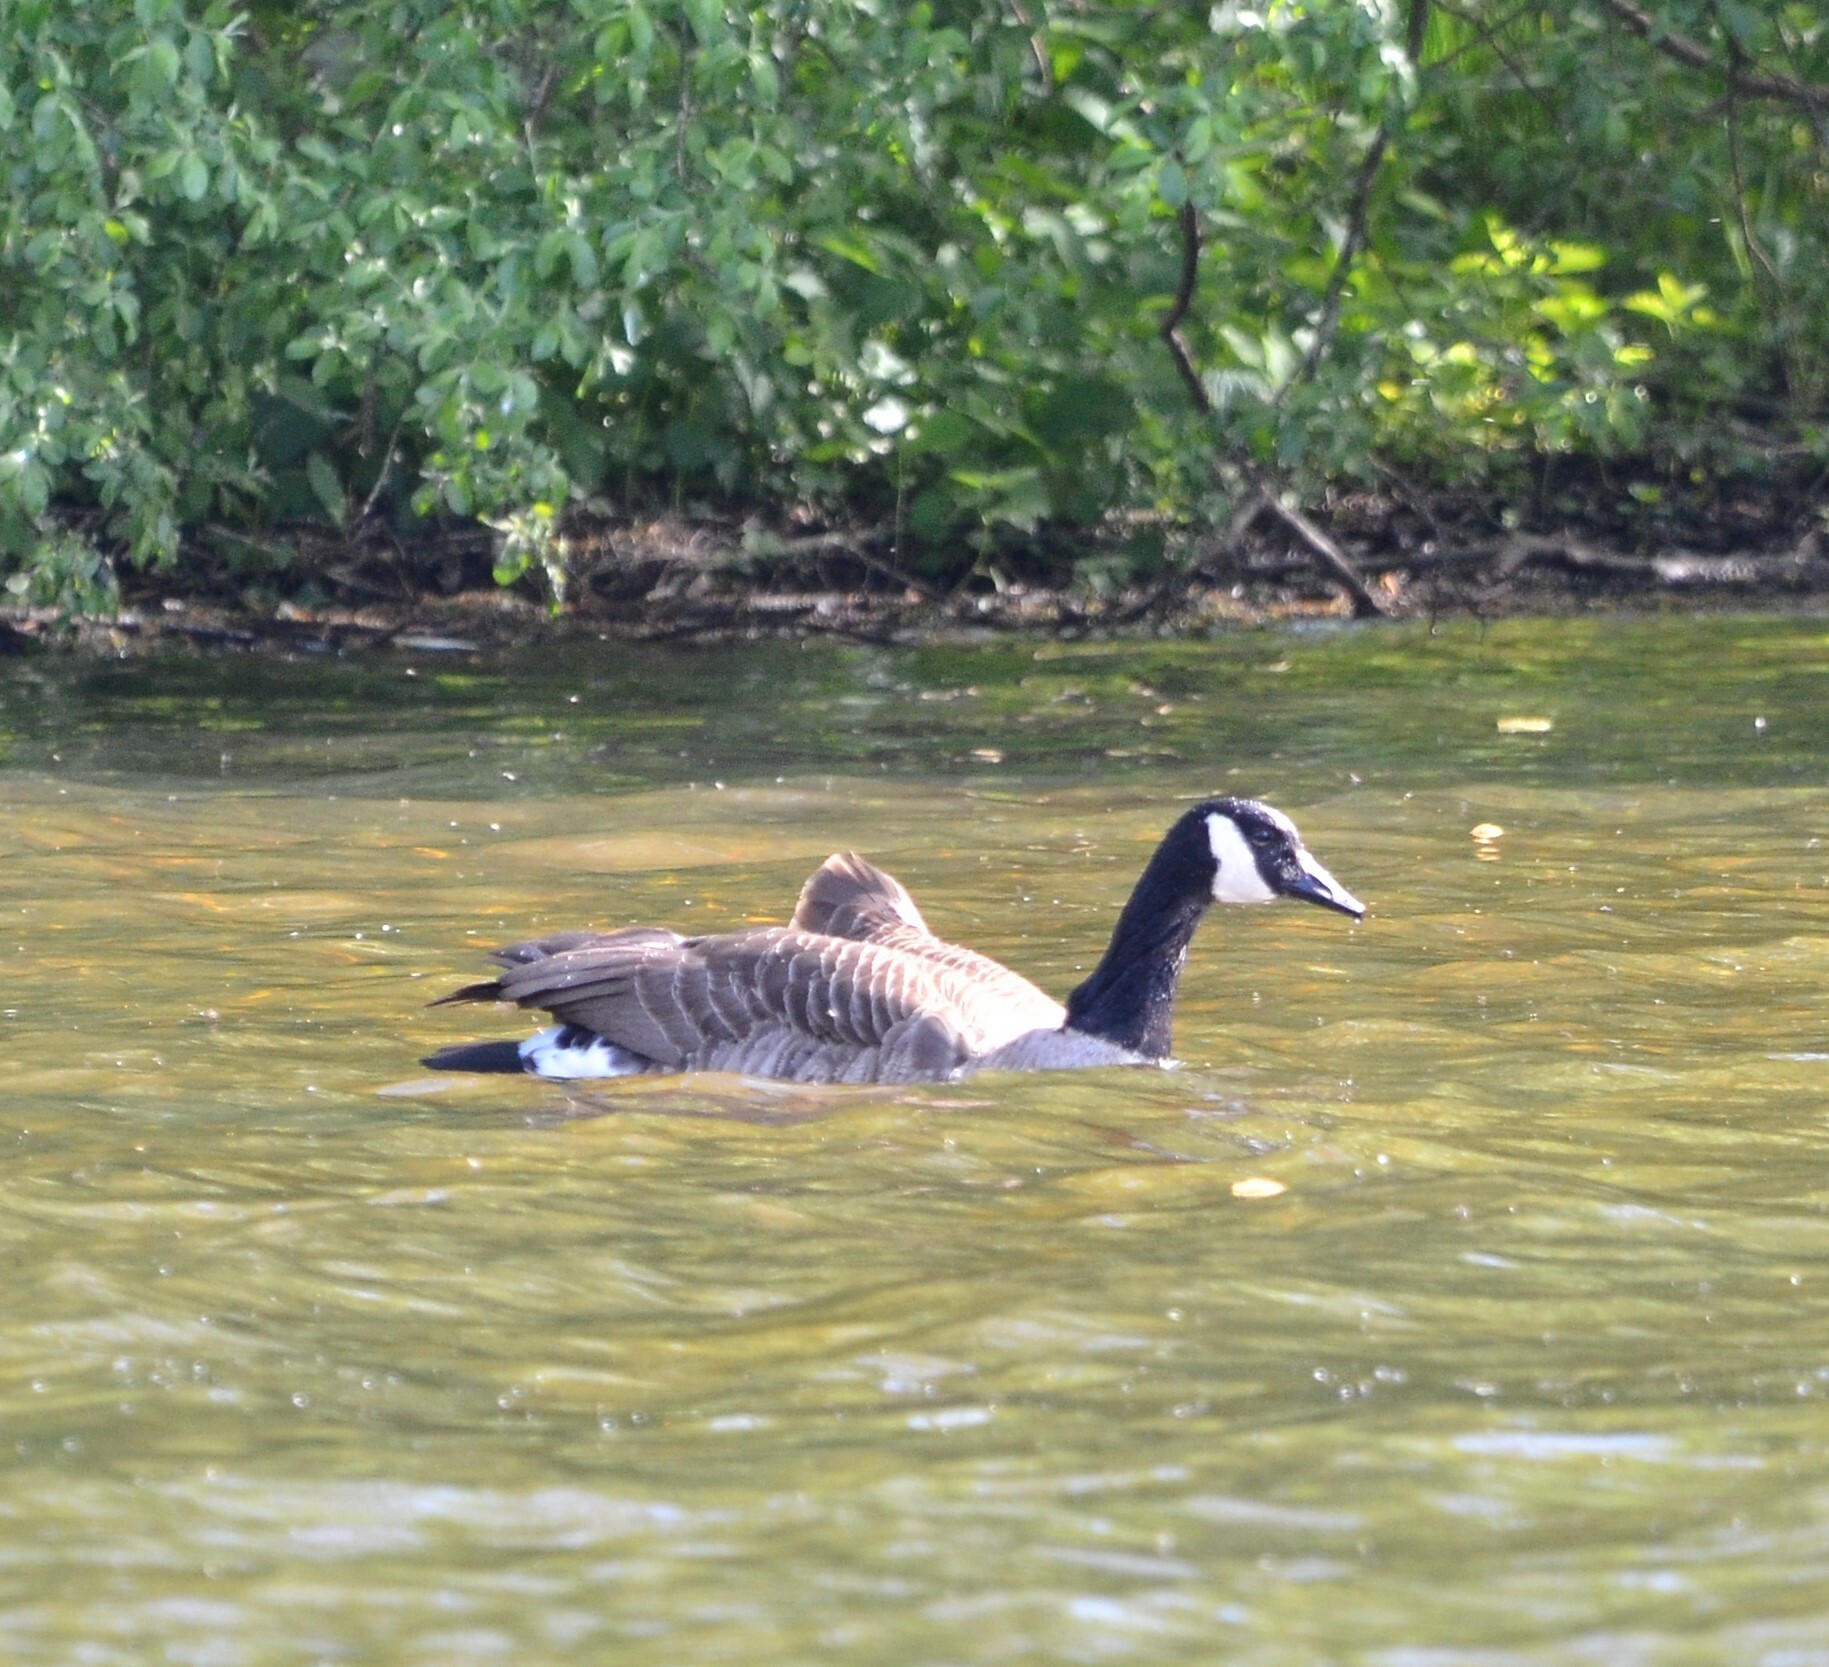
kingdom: Animalia
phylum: Chordata
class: Aves
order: Anseriformes
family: Anatidae
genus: Branta
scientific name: Branta canadensis
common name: Canada goose
